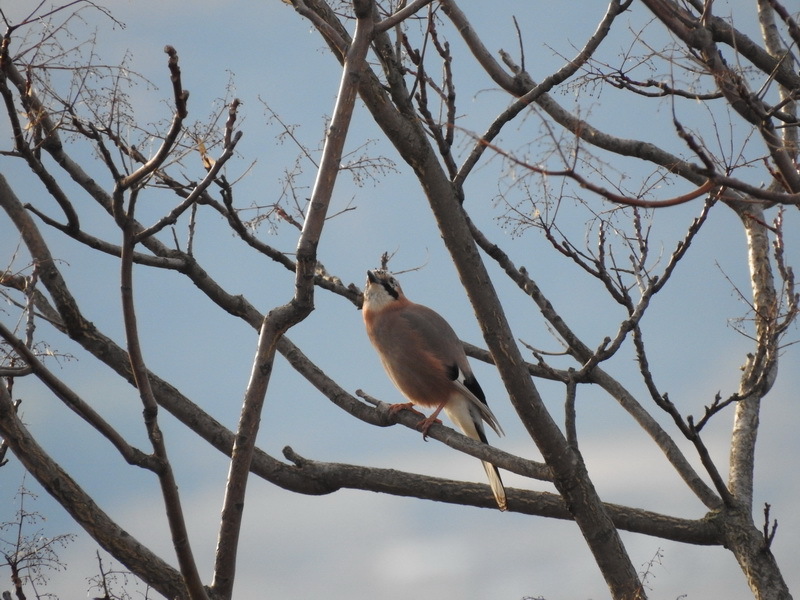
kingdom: Animalia
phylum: Chordata
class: Aves
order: Passeriformes
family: Corvidae
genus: Garrulus
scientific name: Garrulus glandarius
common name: Eurasian jay
